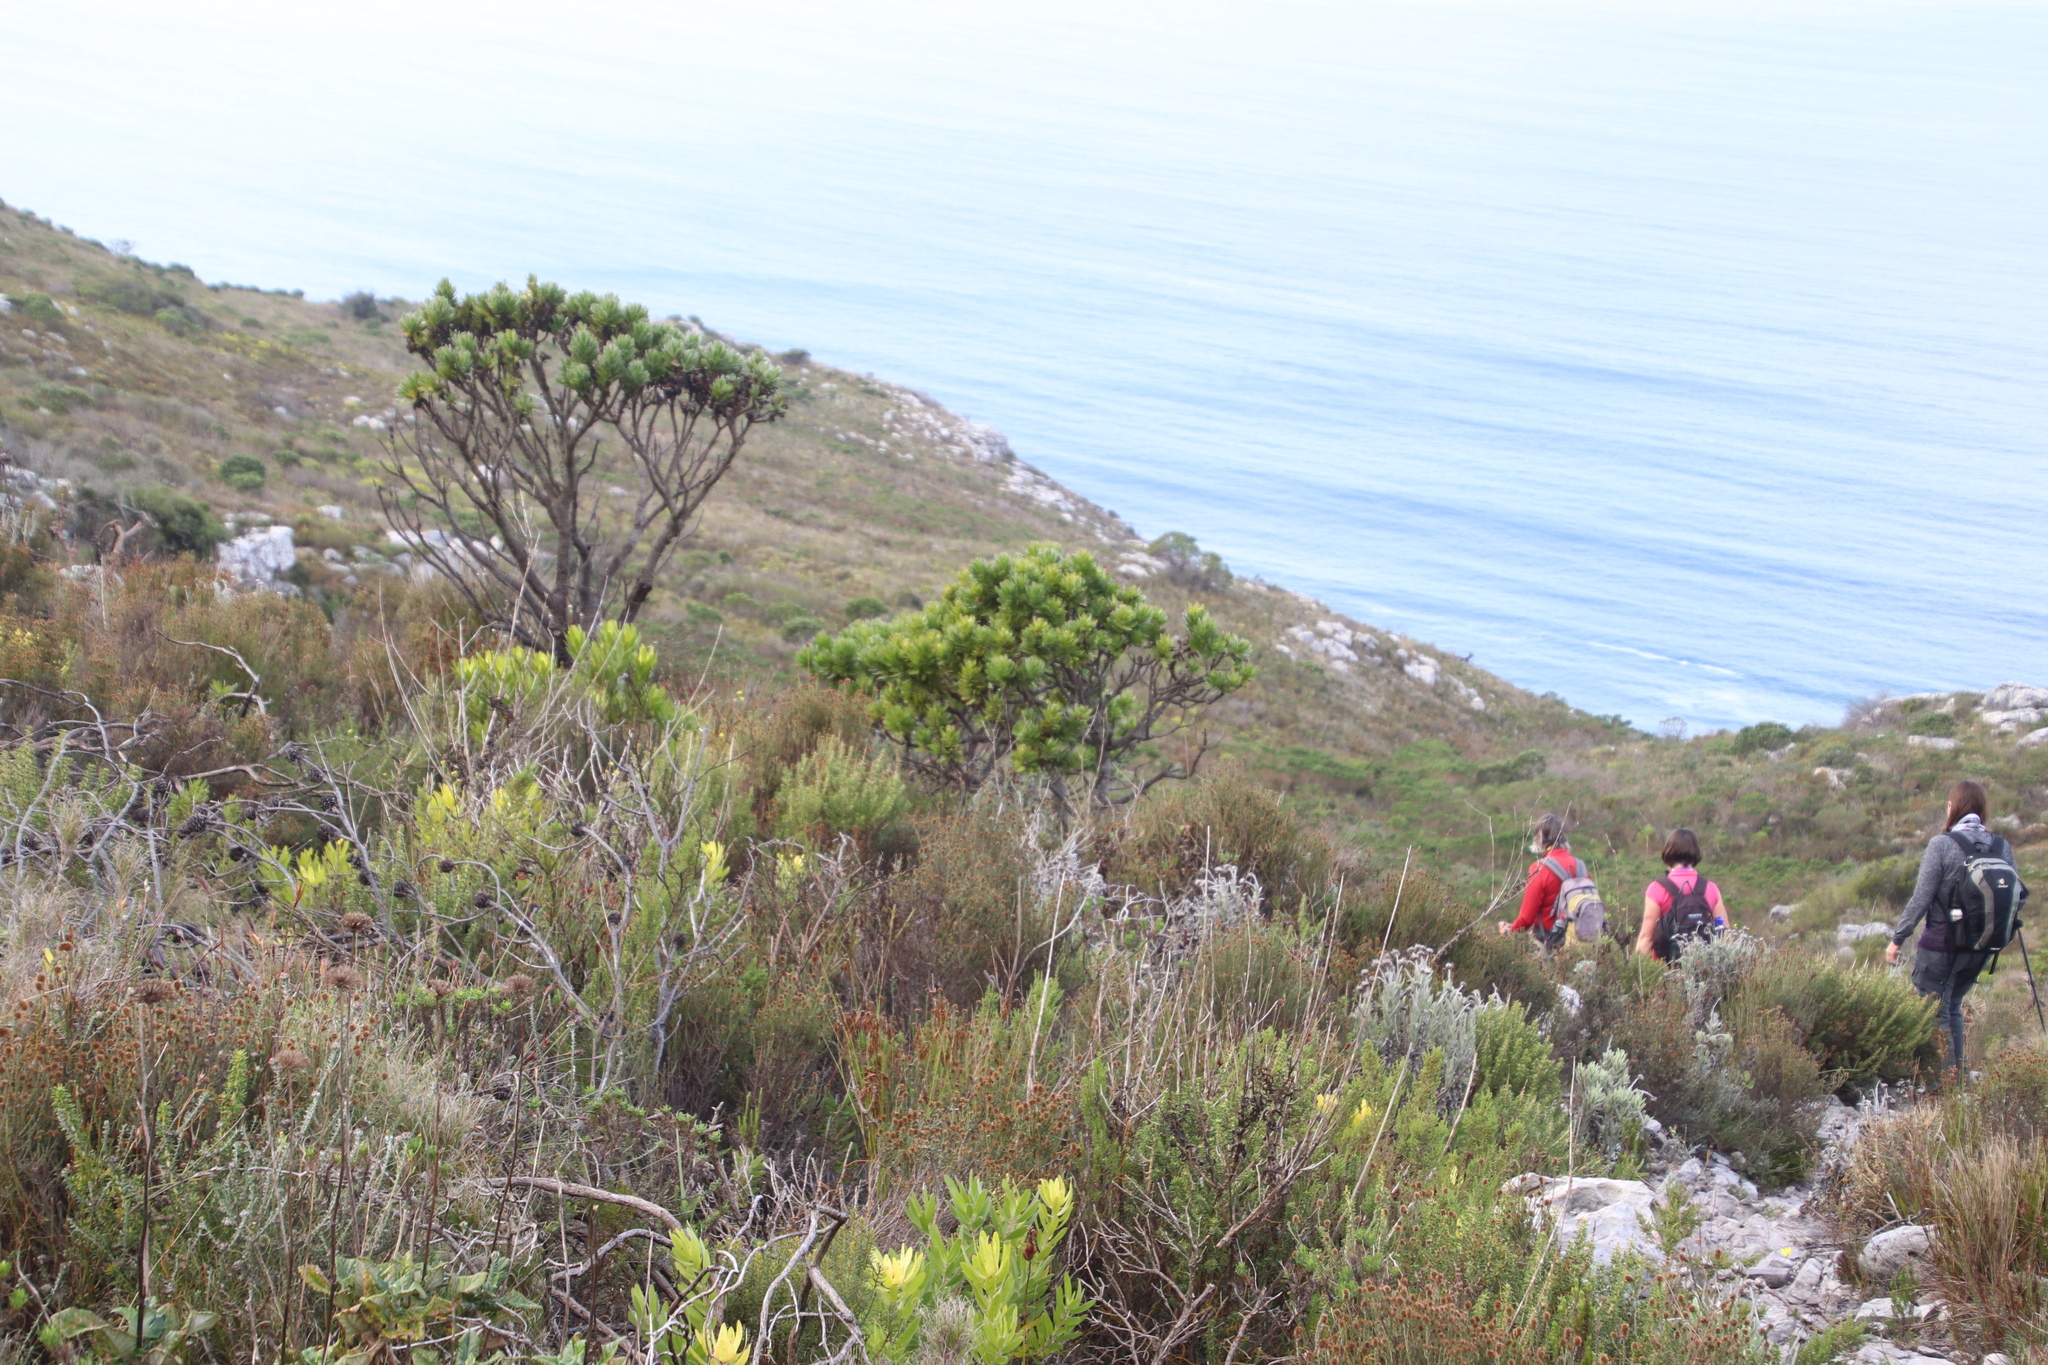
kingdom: Plantae
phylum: Tracheophyta
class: Magnoliopsida
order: Proteales
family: Proteaceae
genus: Leucospermum
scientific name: Leucospermum conocarpodendron
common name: Tree pincushion
